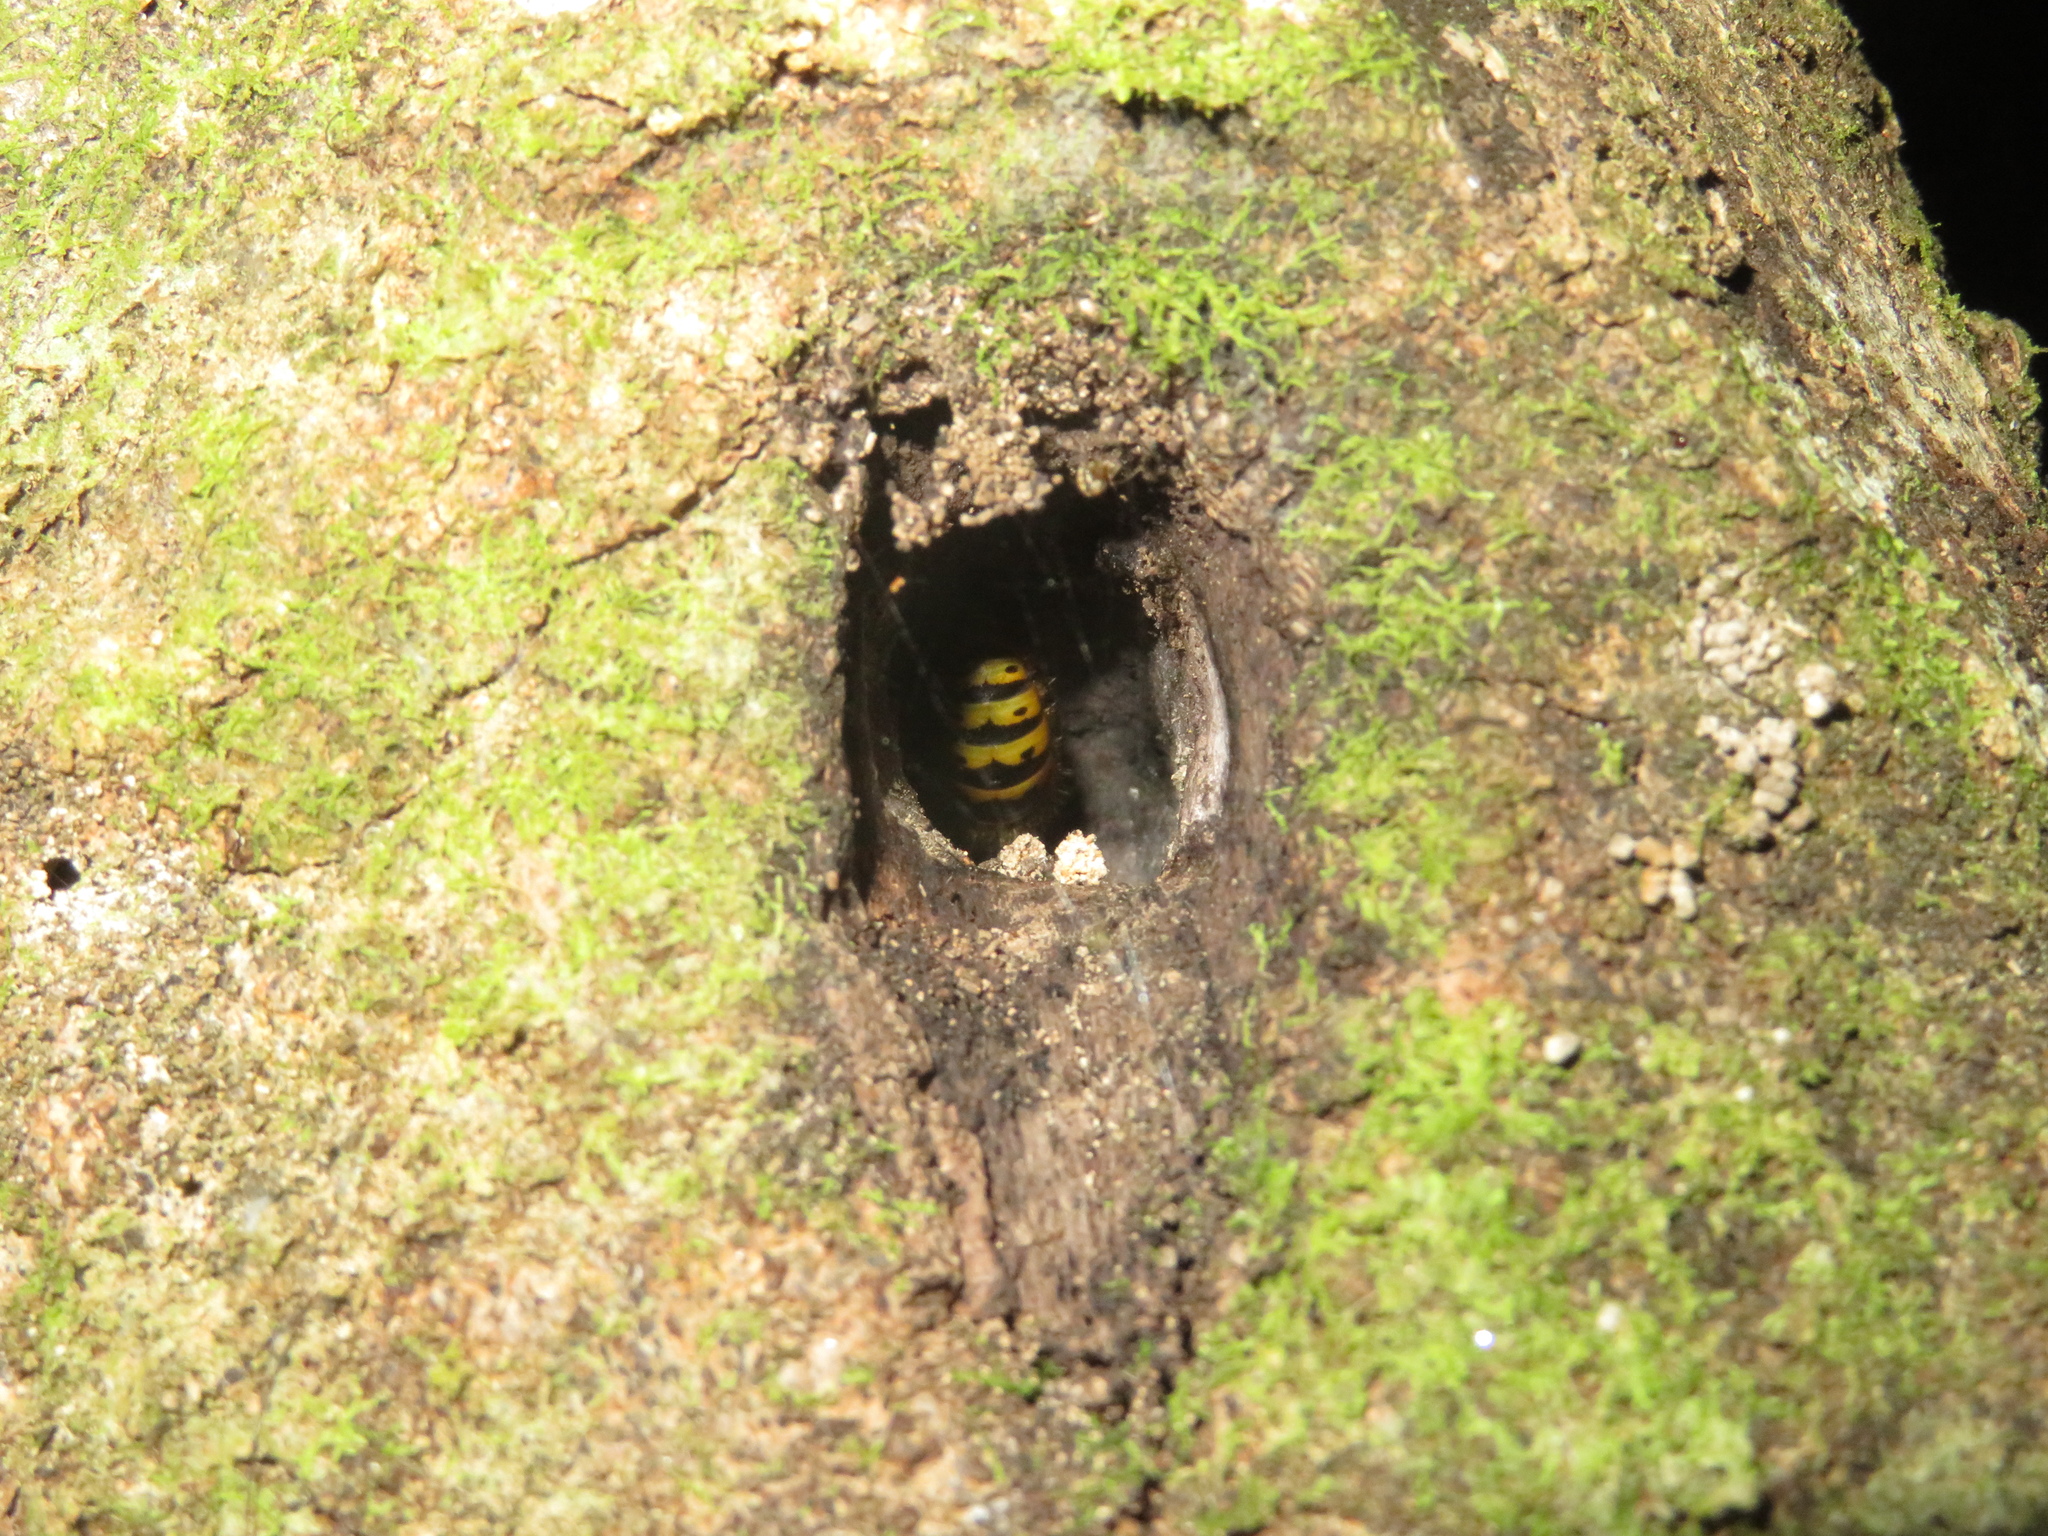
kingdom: Animalia
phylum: Arthropoda
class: Insecta
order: Hymenoptera
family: Vespidae
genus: Vespula
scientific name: Vespula vulgaris
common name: Common wasp
